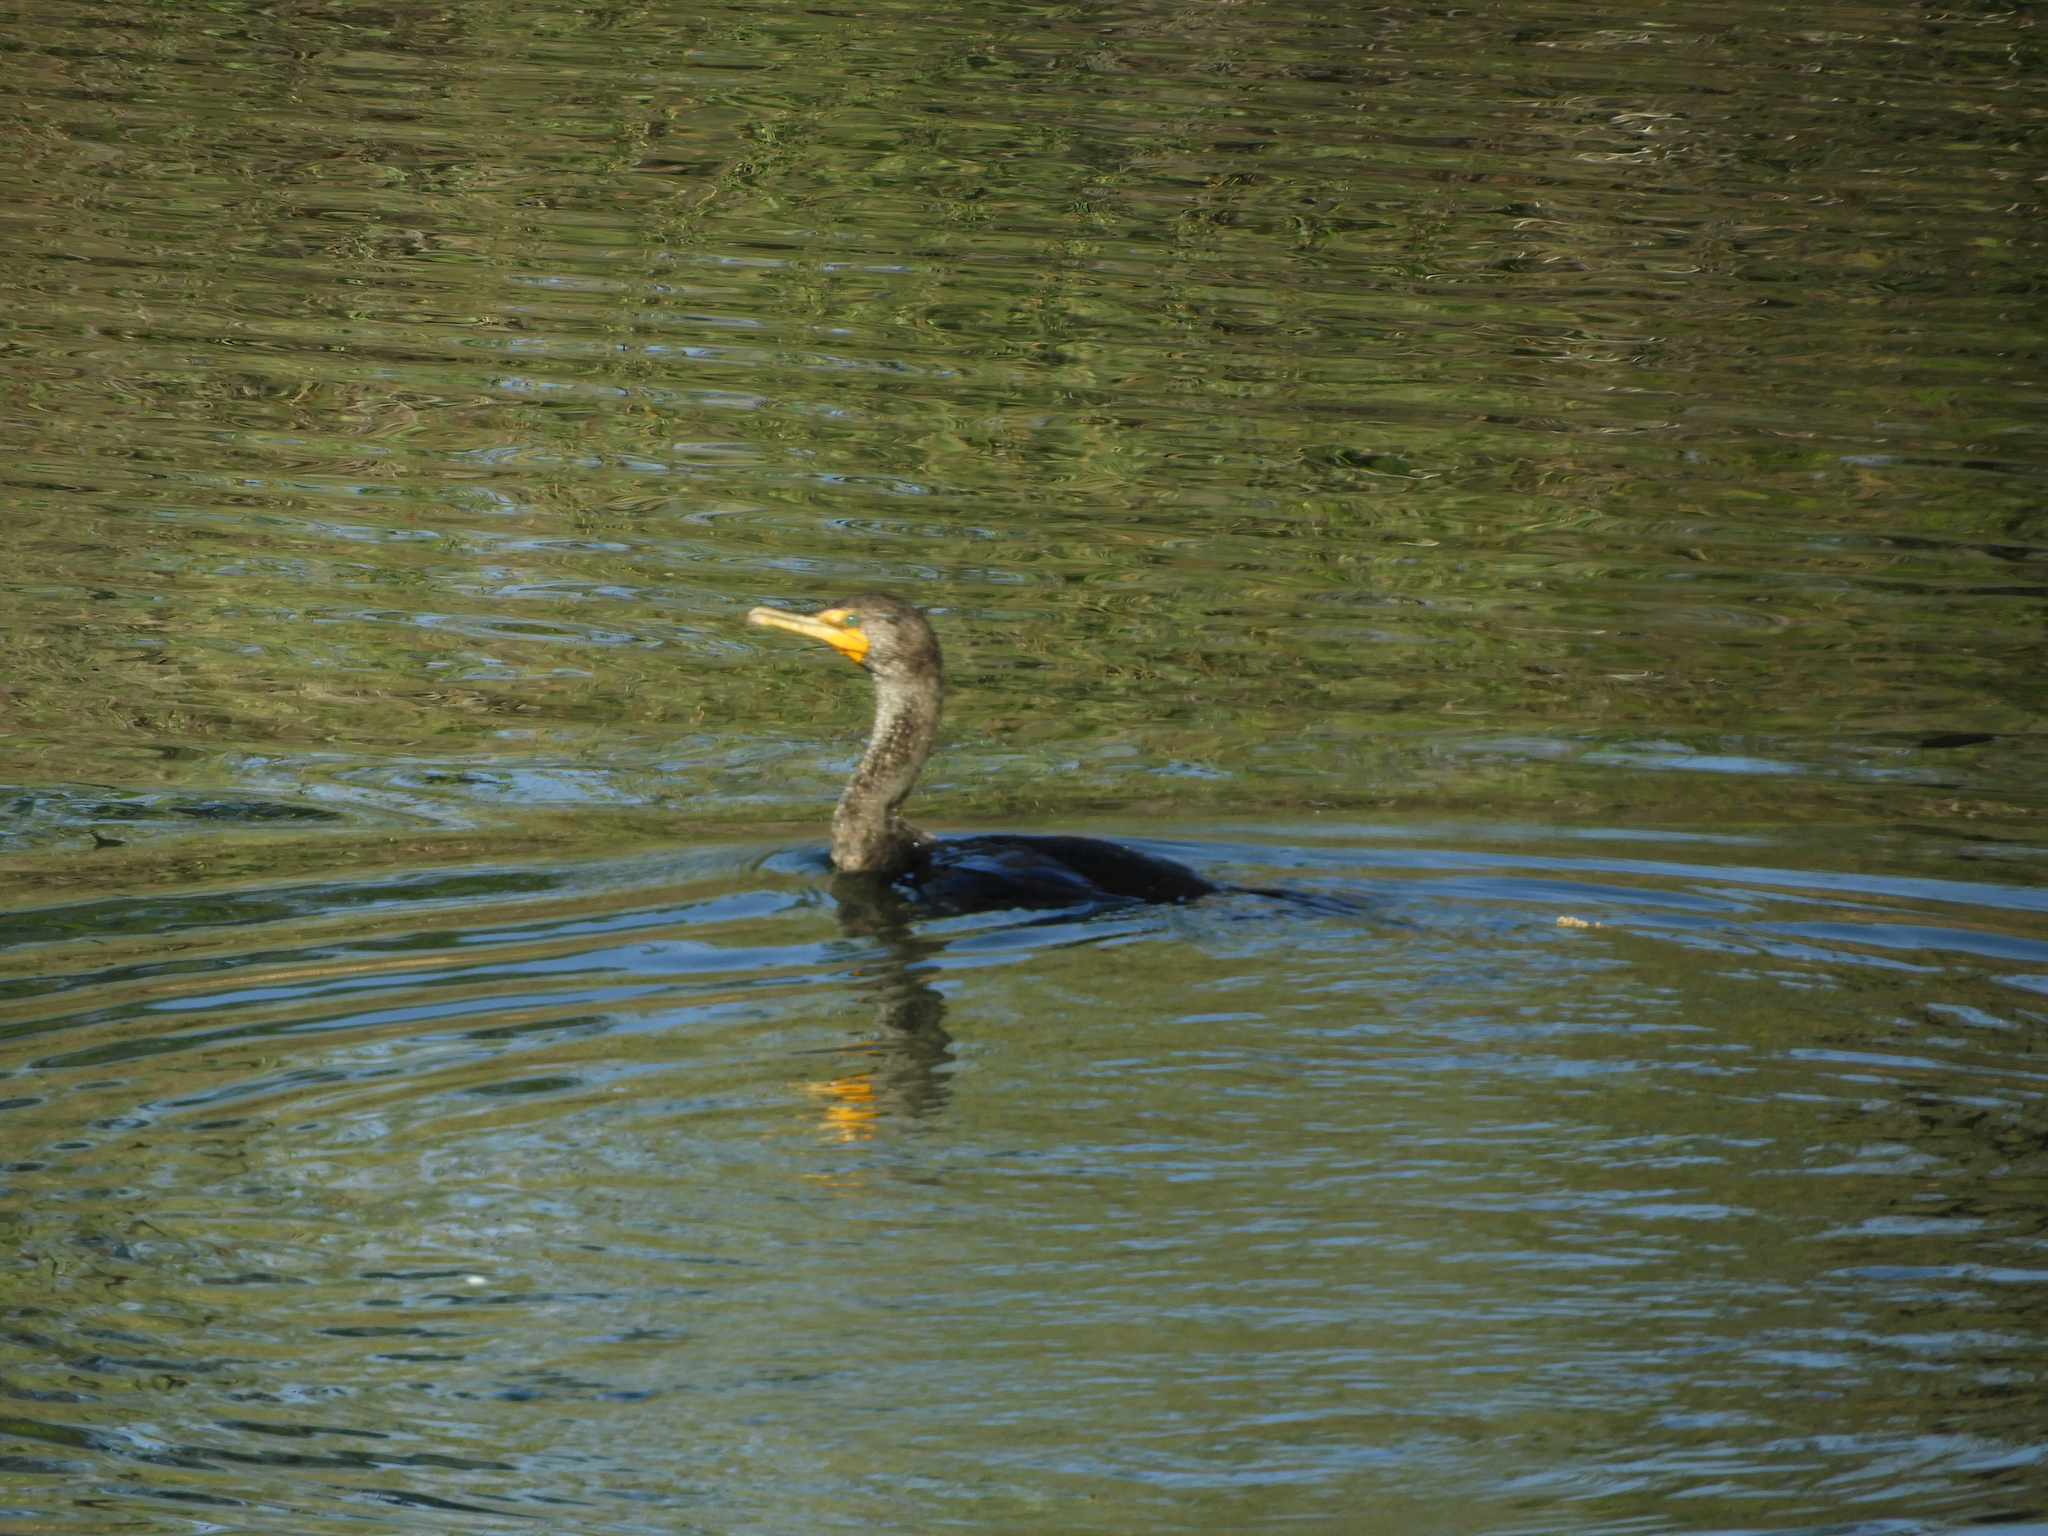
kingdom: Animalia
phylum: Chordata
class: Aves
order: Suliformes
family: Phalacrocoracidae
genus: Phalacrocorax
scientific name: Phalacrocorax auritus
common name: Double-crested cormorant
